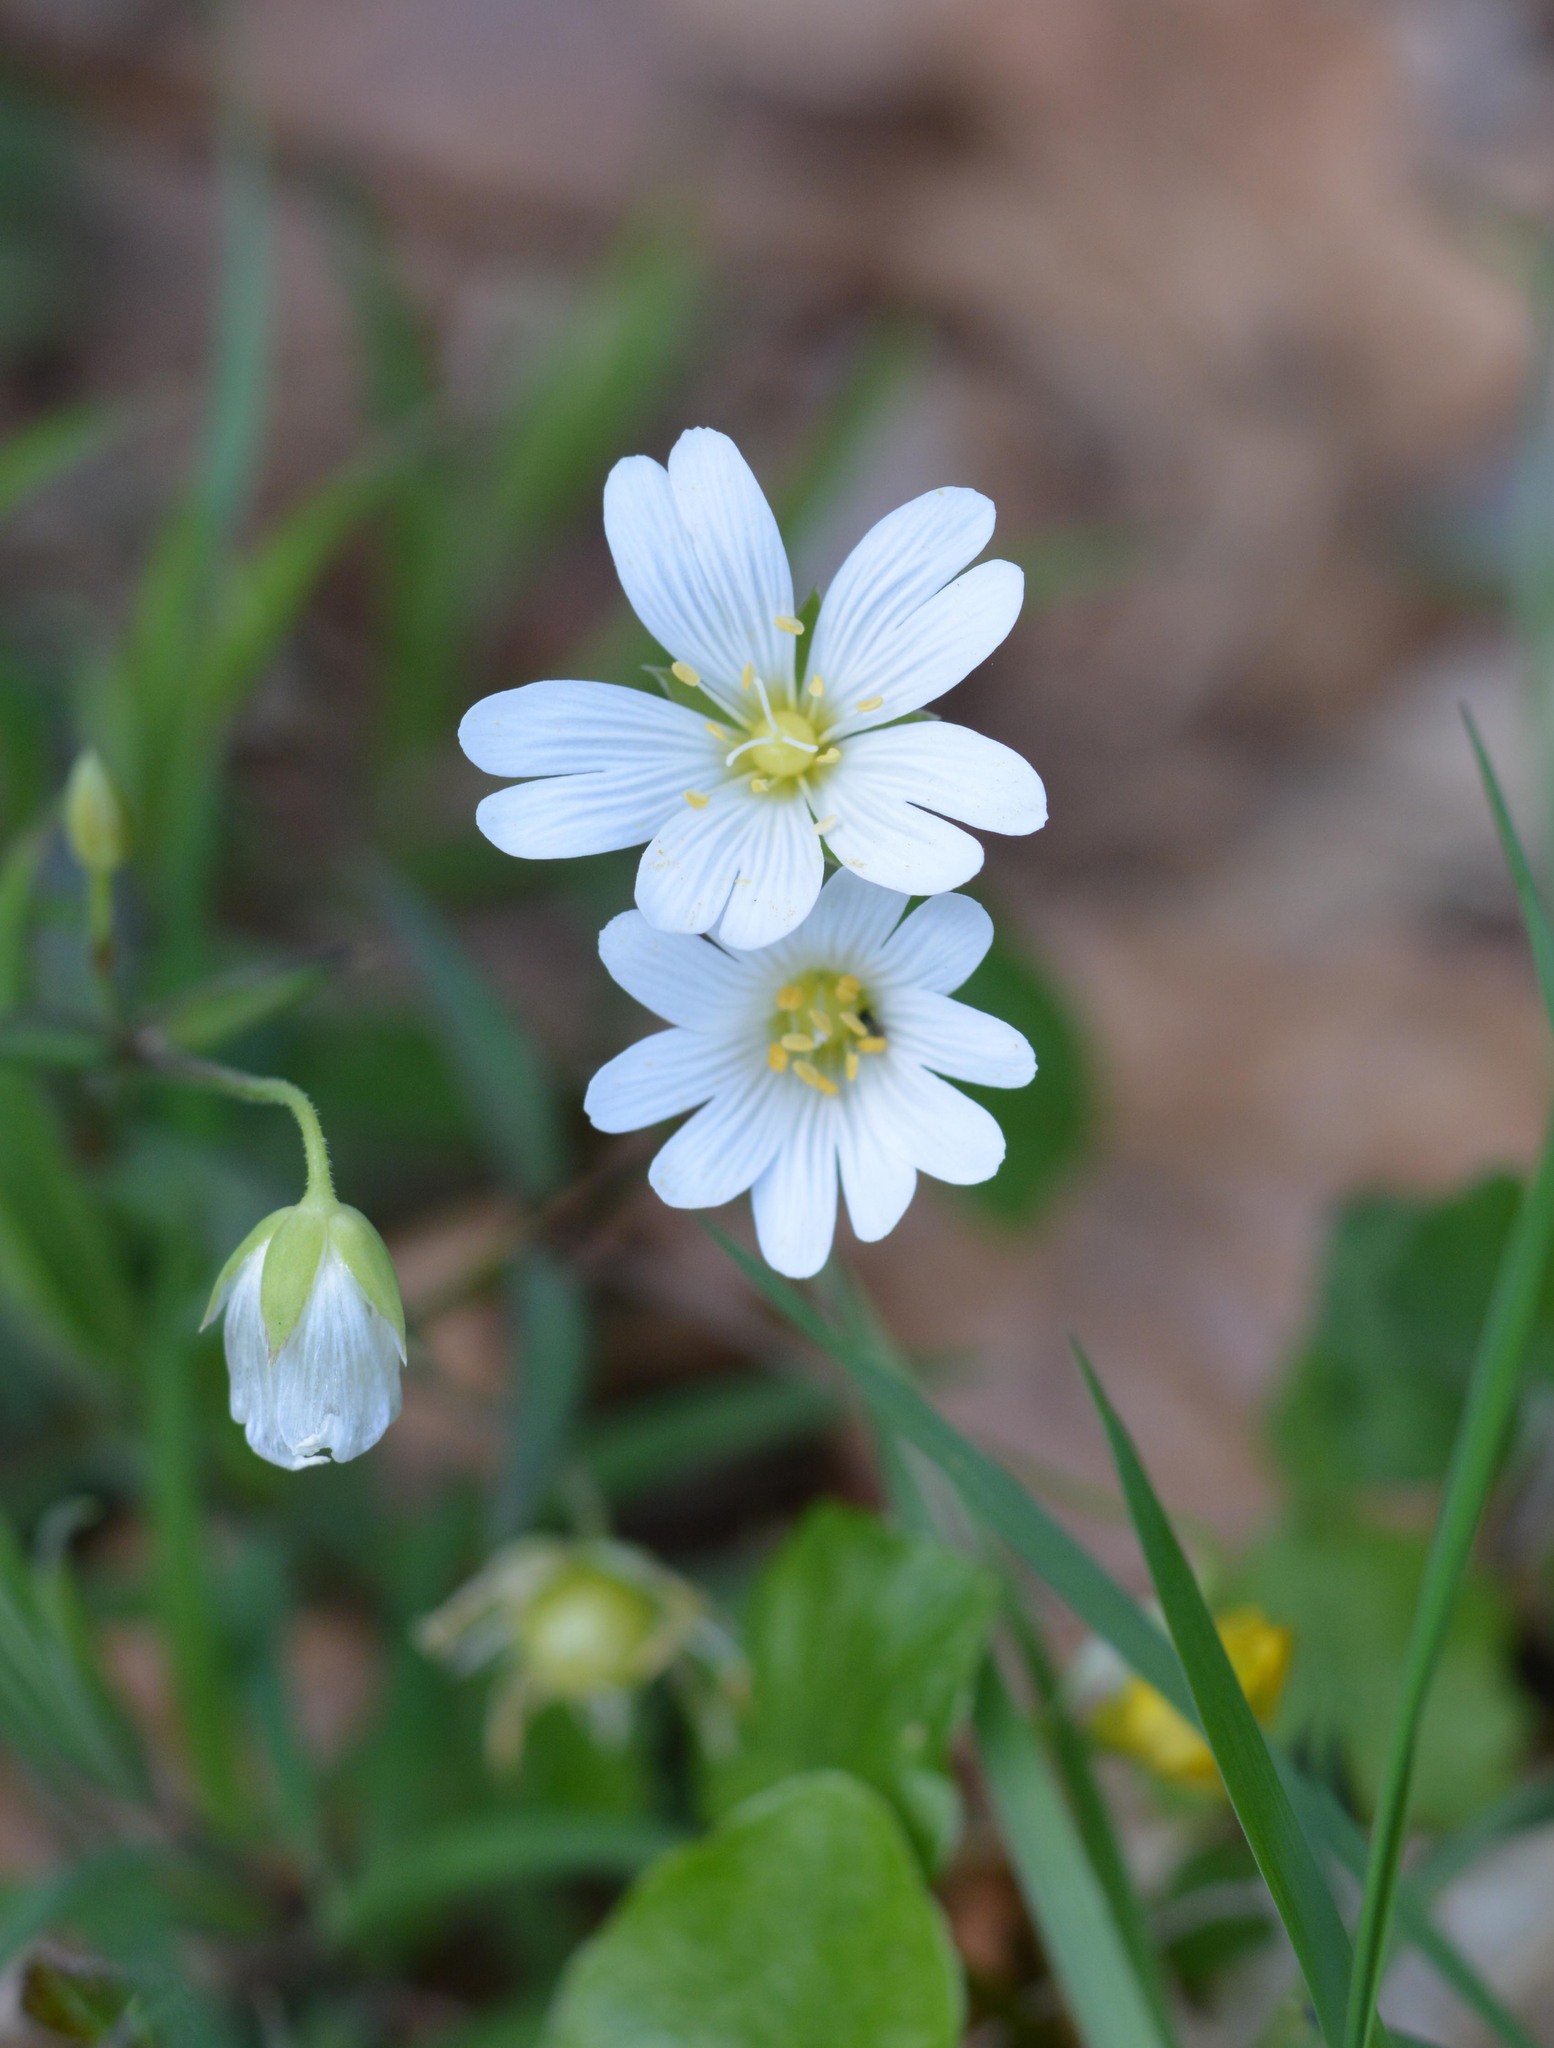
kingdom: Plantae
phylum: Tracheophyta
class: Magnoliopsida
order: Caryophyllales
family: Caryophyllaceae
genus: Rabelera
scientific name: Rabelera holostea
